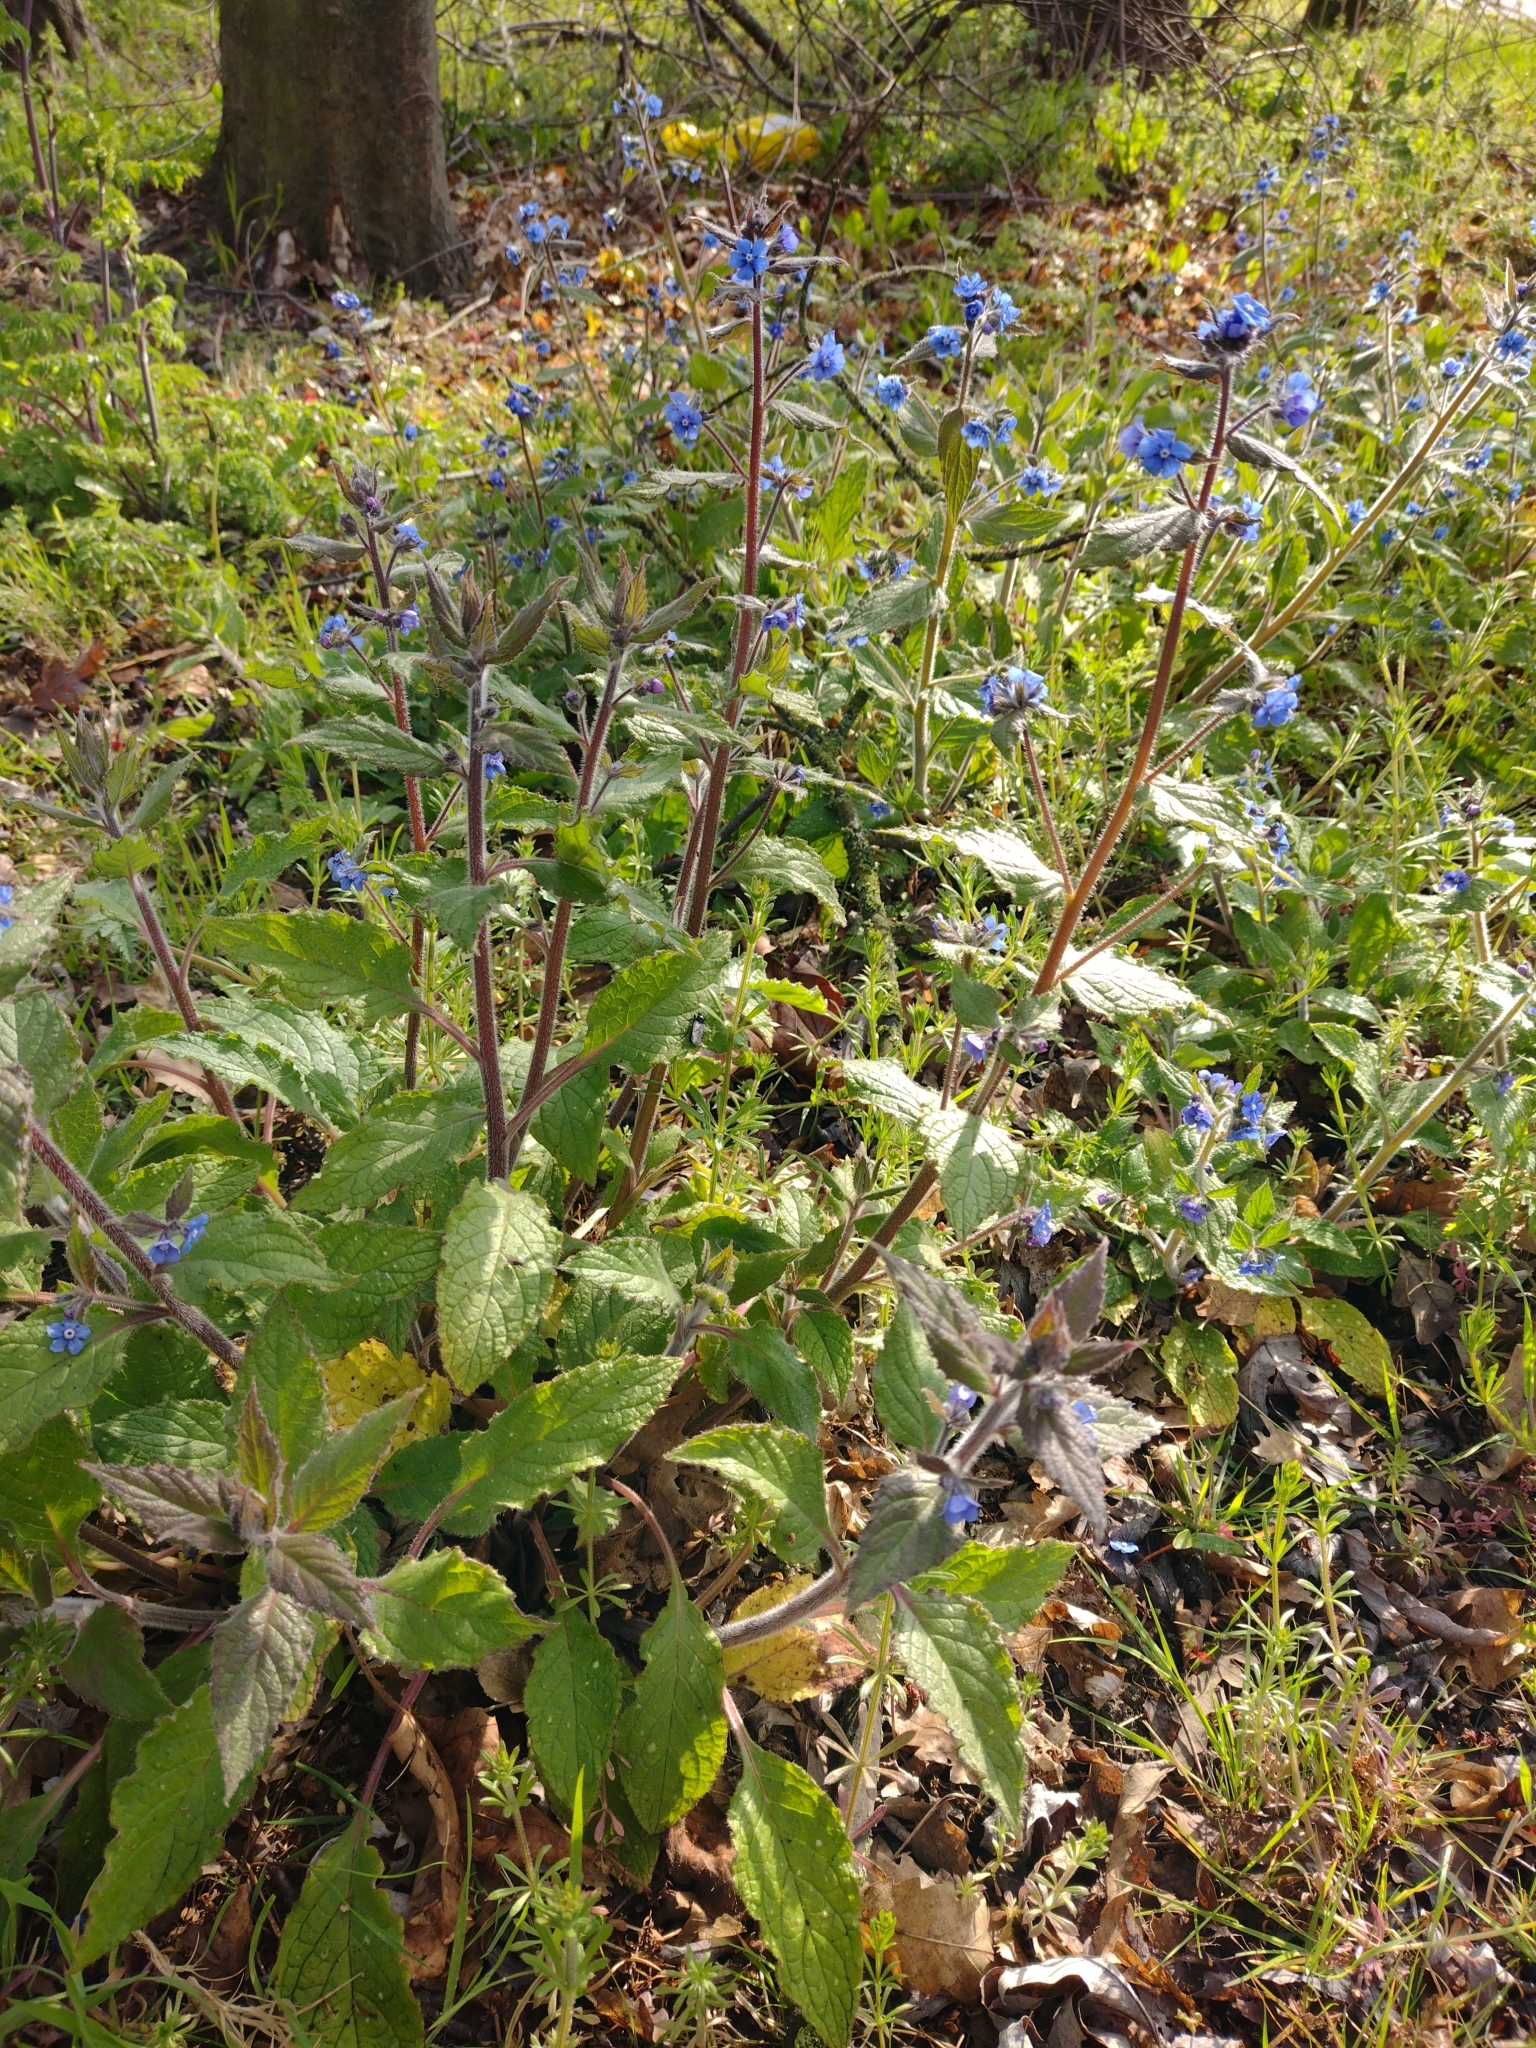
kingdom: Plantae
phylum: Tracheophyta
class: Magnoliopsida
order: Boraginales
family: Boraginaceae
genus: Pentaglottis
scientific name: Pentaglottis sempervirens
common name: Green alkanet
